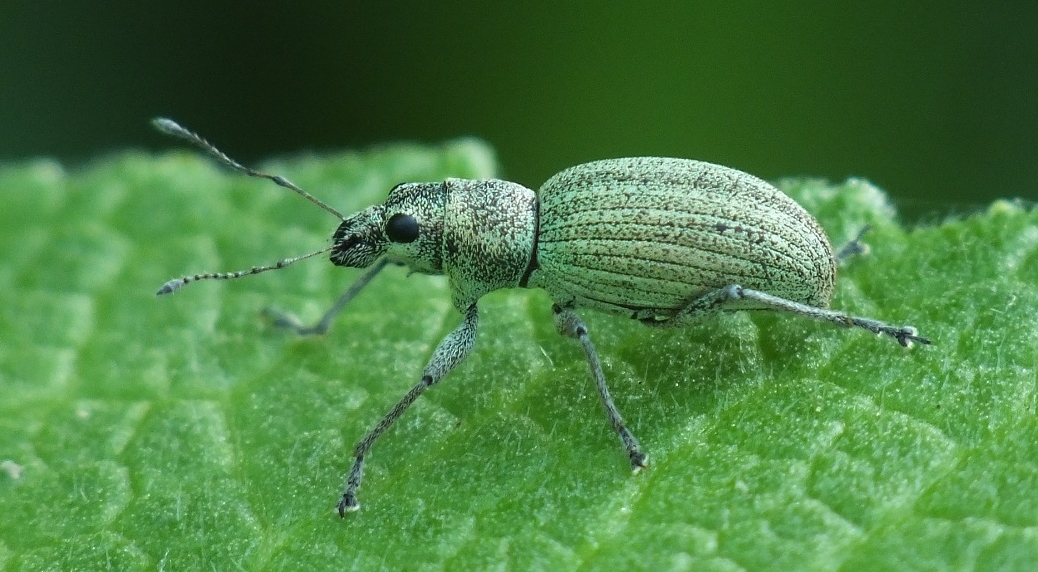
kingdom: Animalia
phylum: Arthropoda
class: Insecta
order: Coleoptera
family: Curculionidae
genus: Eusomus
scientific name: Eusomus ovulum
